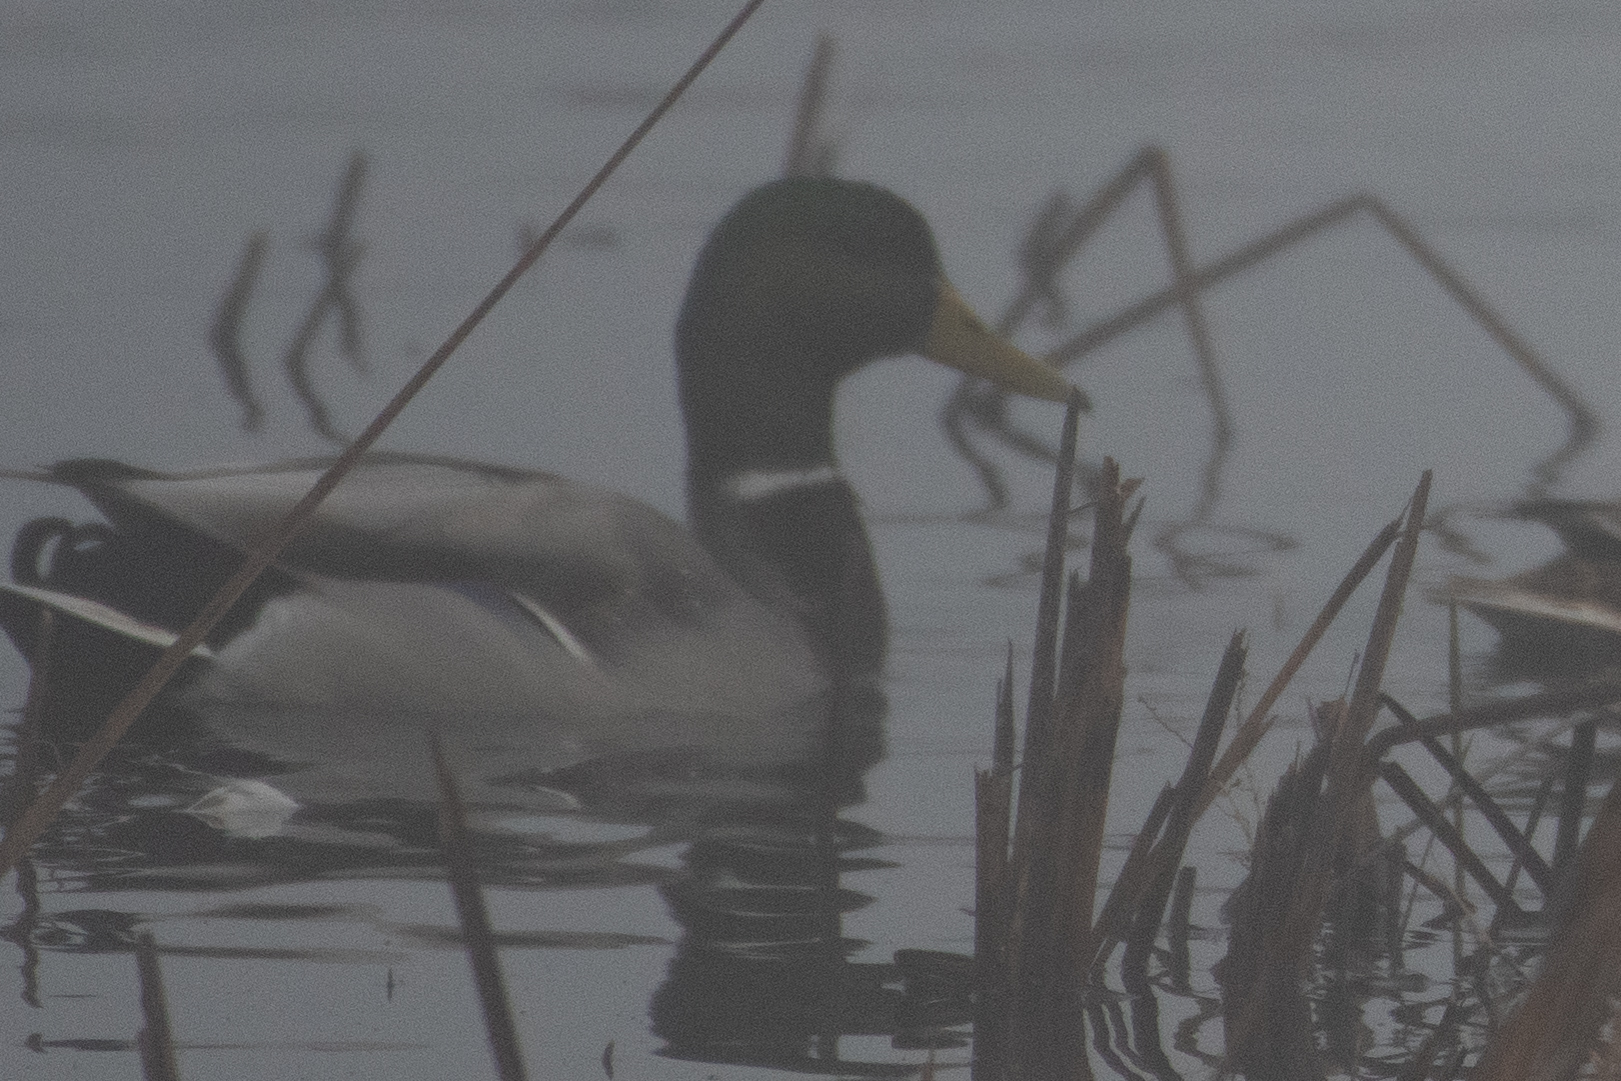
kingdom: Animalia
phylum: Chordata
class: Aves
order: Anseriformes
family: Anatidae
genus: Anas
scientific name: Anas platyrhynchos
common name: Mallard
